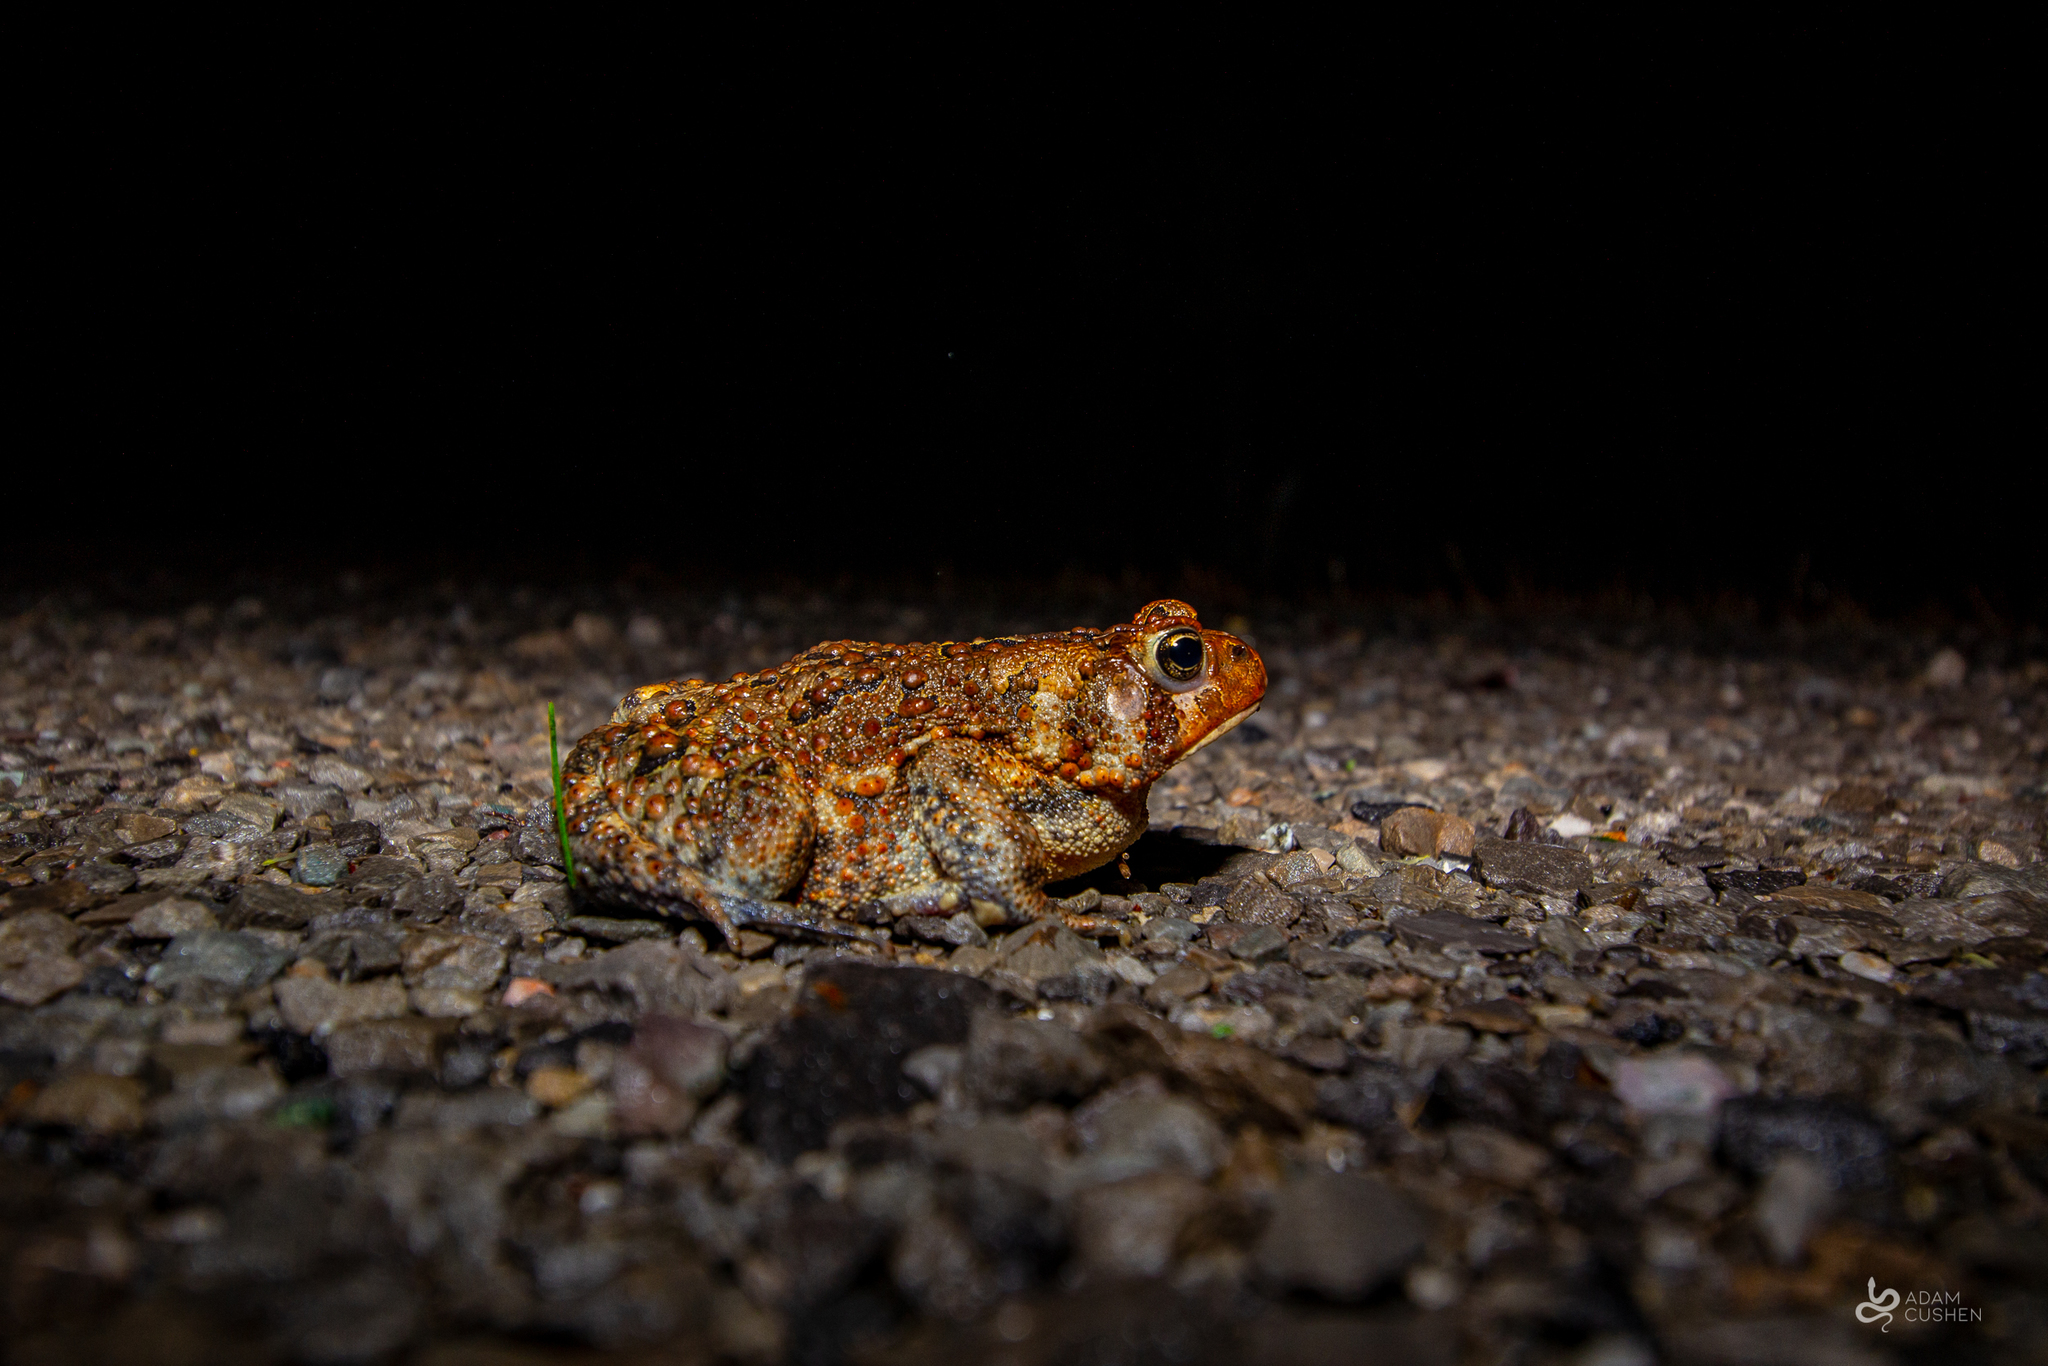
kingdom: Animalia
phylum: Chordata
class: Amphibia
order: Anura
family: Bufonidae
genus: Anaxyrus
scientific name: Anaxyrus americanus
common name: American toad
